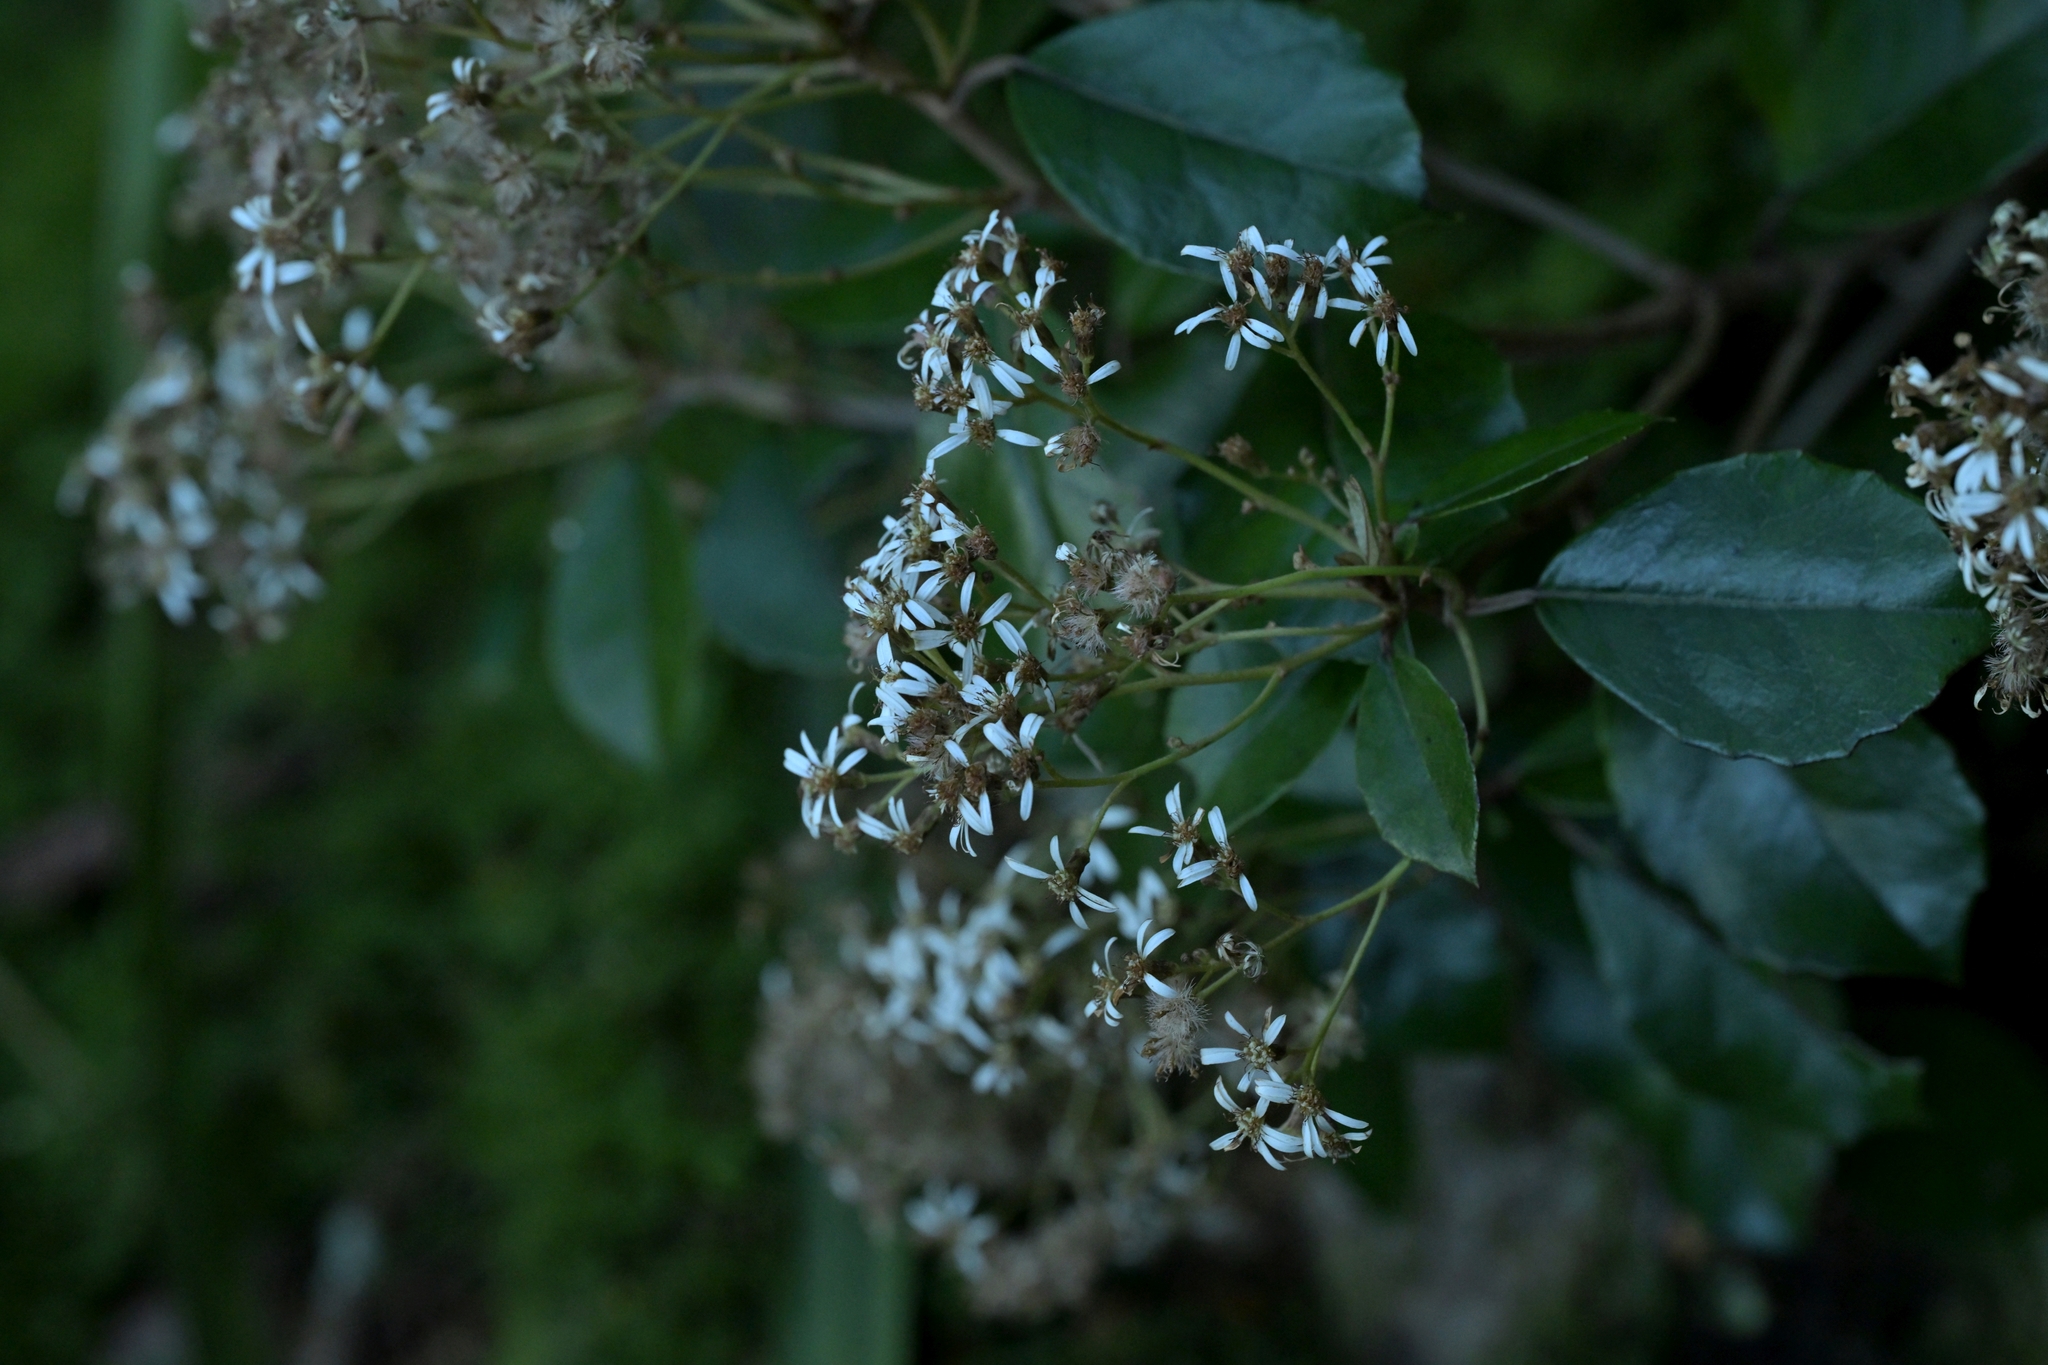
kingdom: Plantae
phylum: Tracheophyta
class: Magnoliopsida
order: Asterales
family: Asteraceae
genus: Olearia
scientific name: Olearia arborescens
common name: Glossy tree daisy
